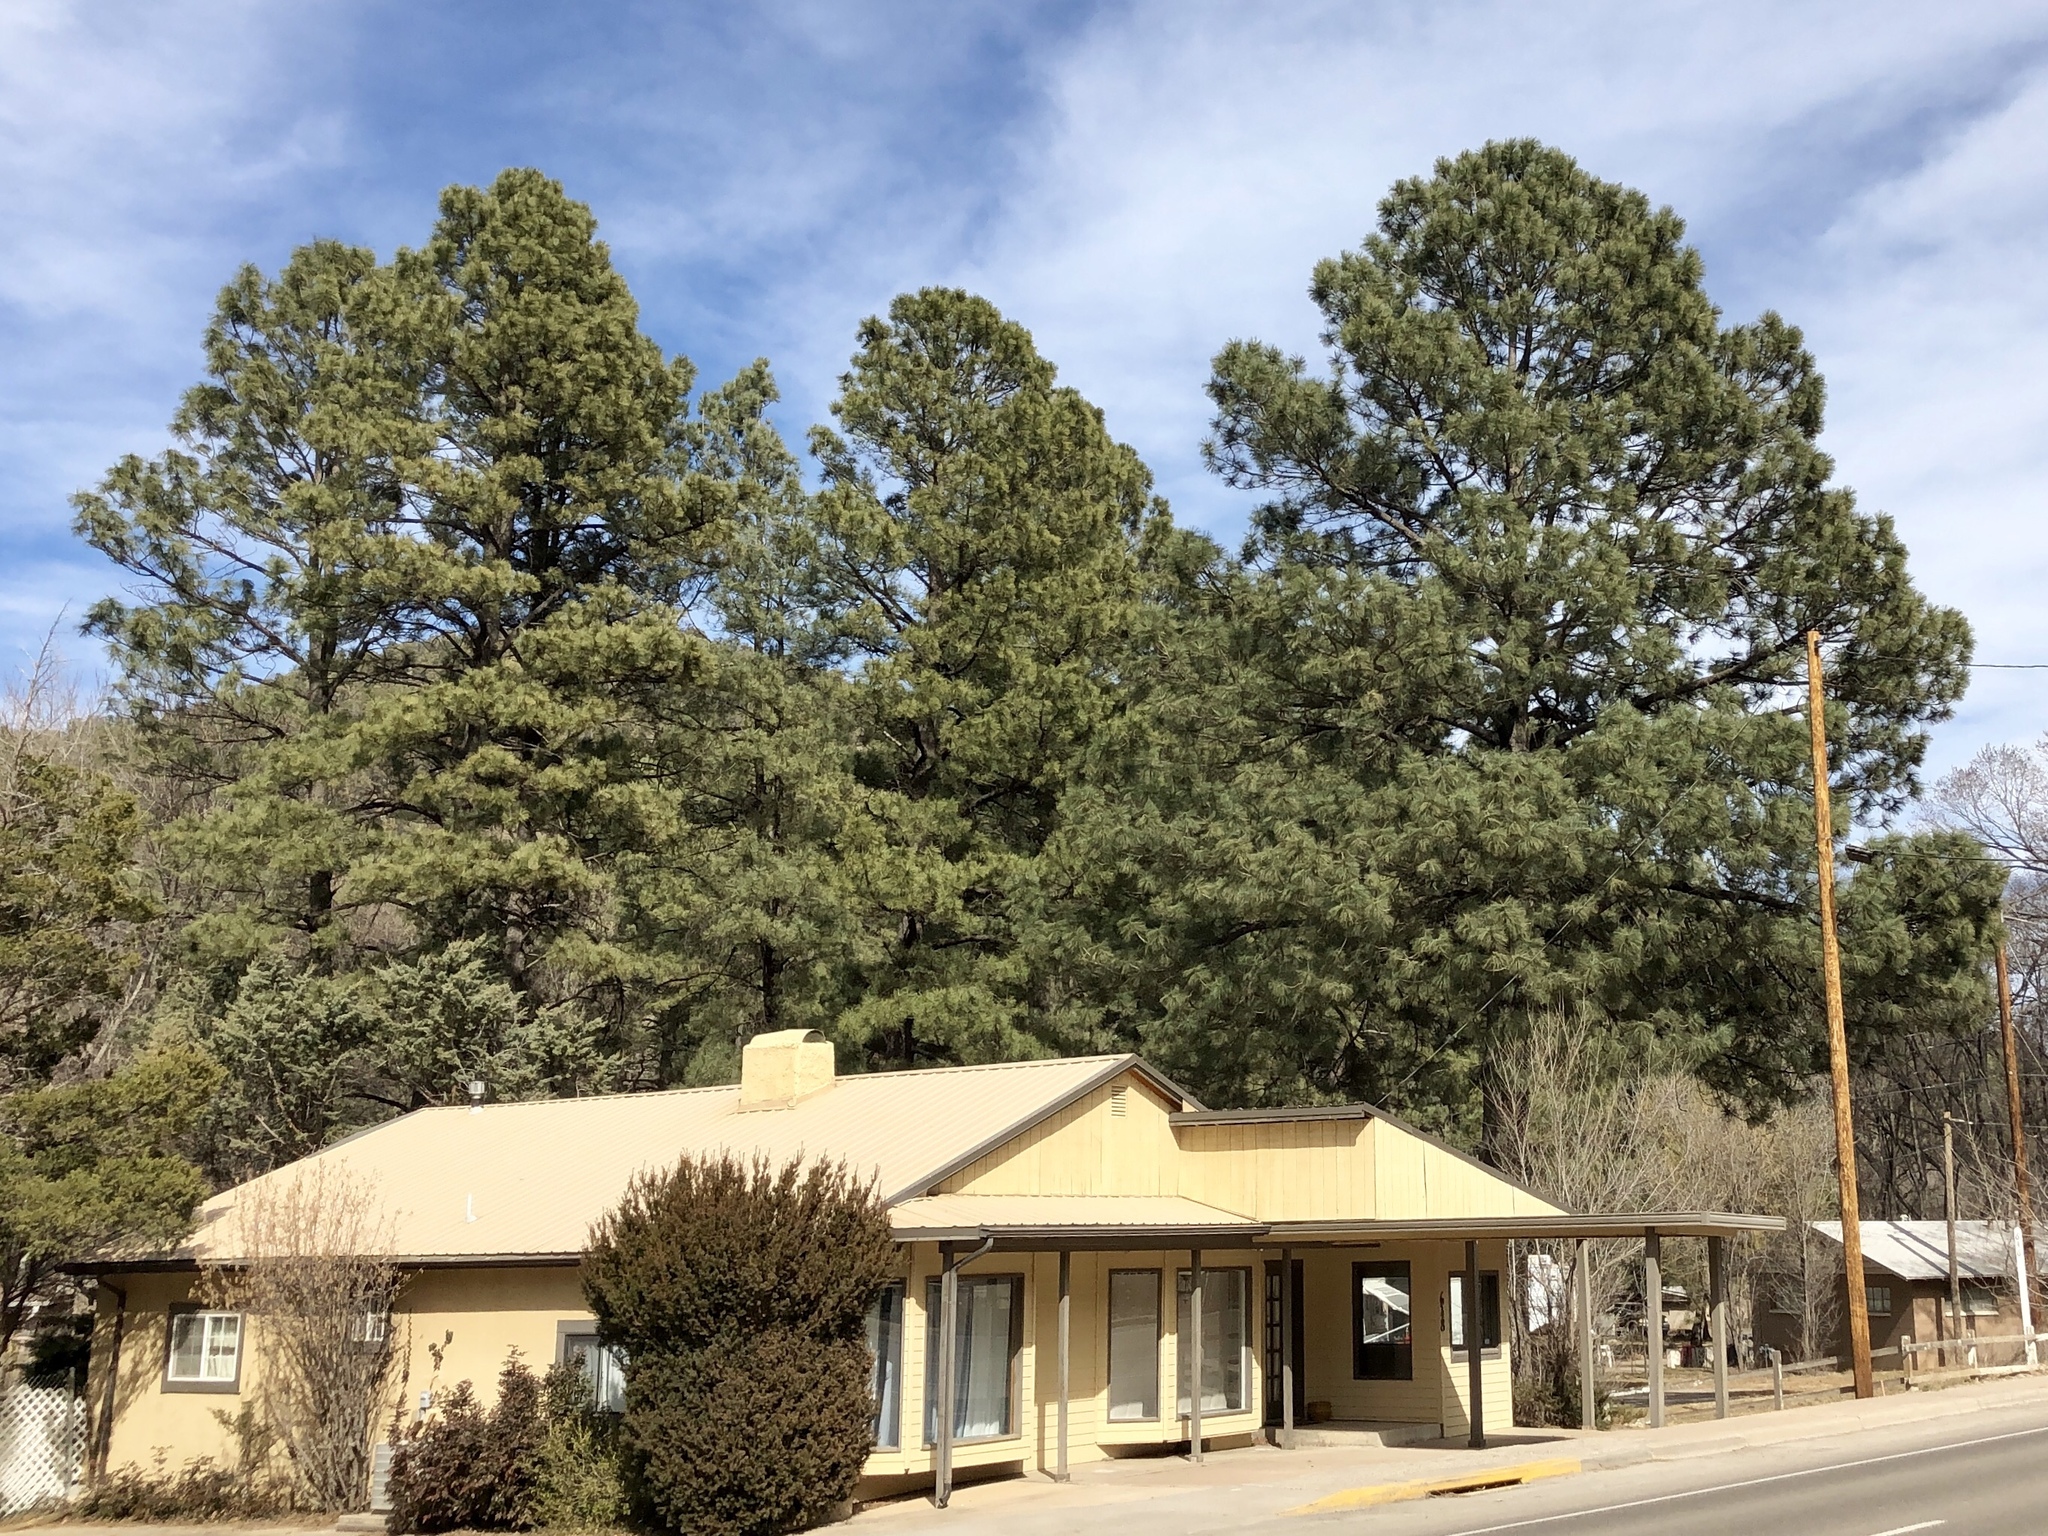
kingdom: Plantae
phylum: Tracheophyta
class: Pinopsida
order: Pinales
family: Pinaceae
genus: Pinus
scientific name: Pinus ponderosa
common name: Western yellow-pine
